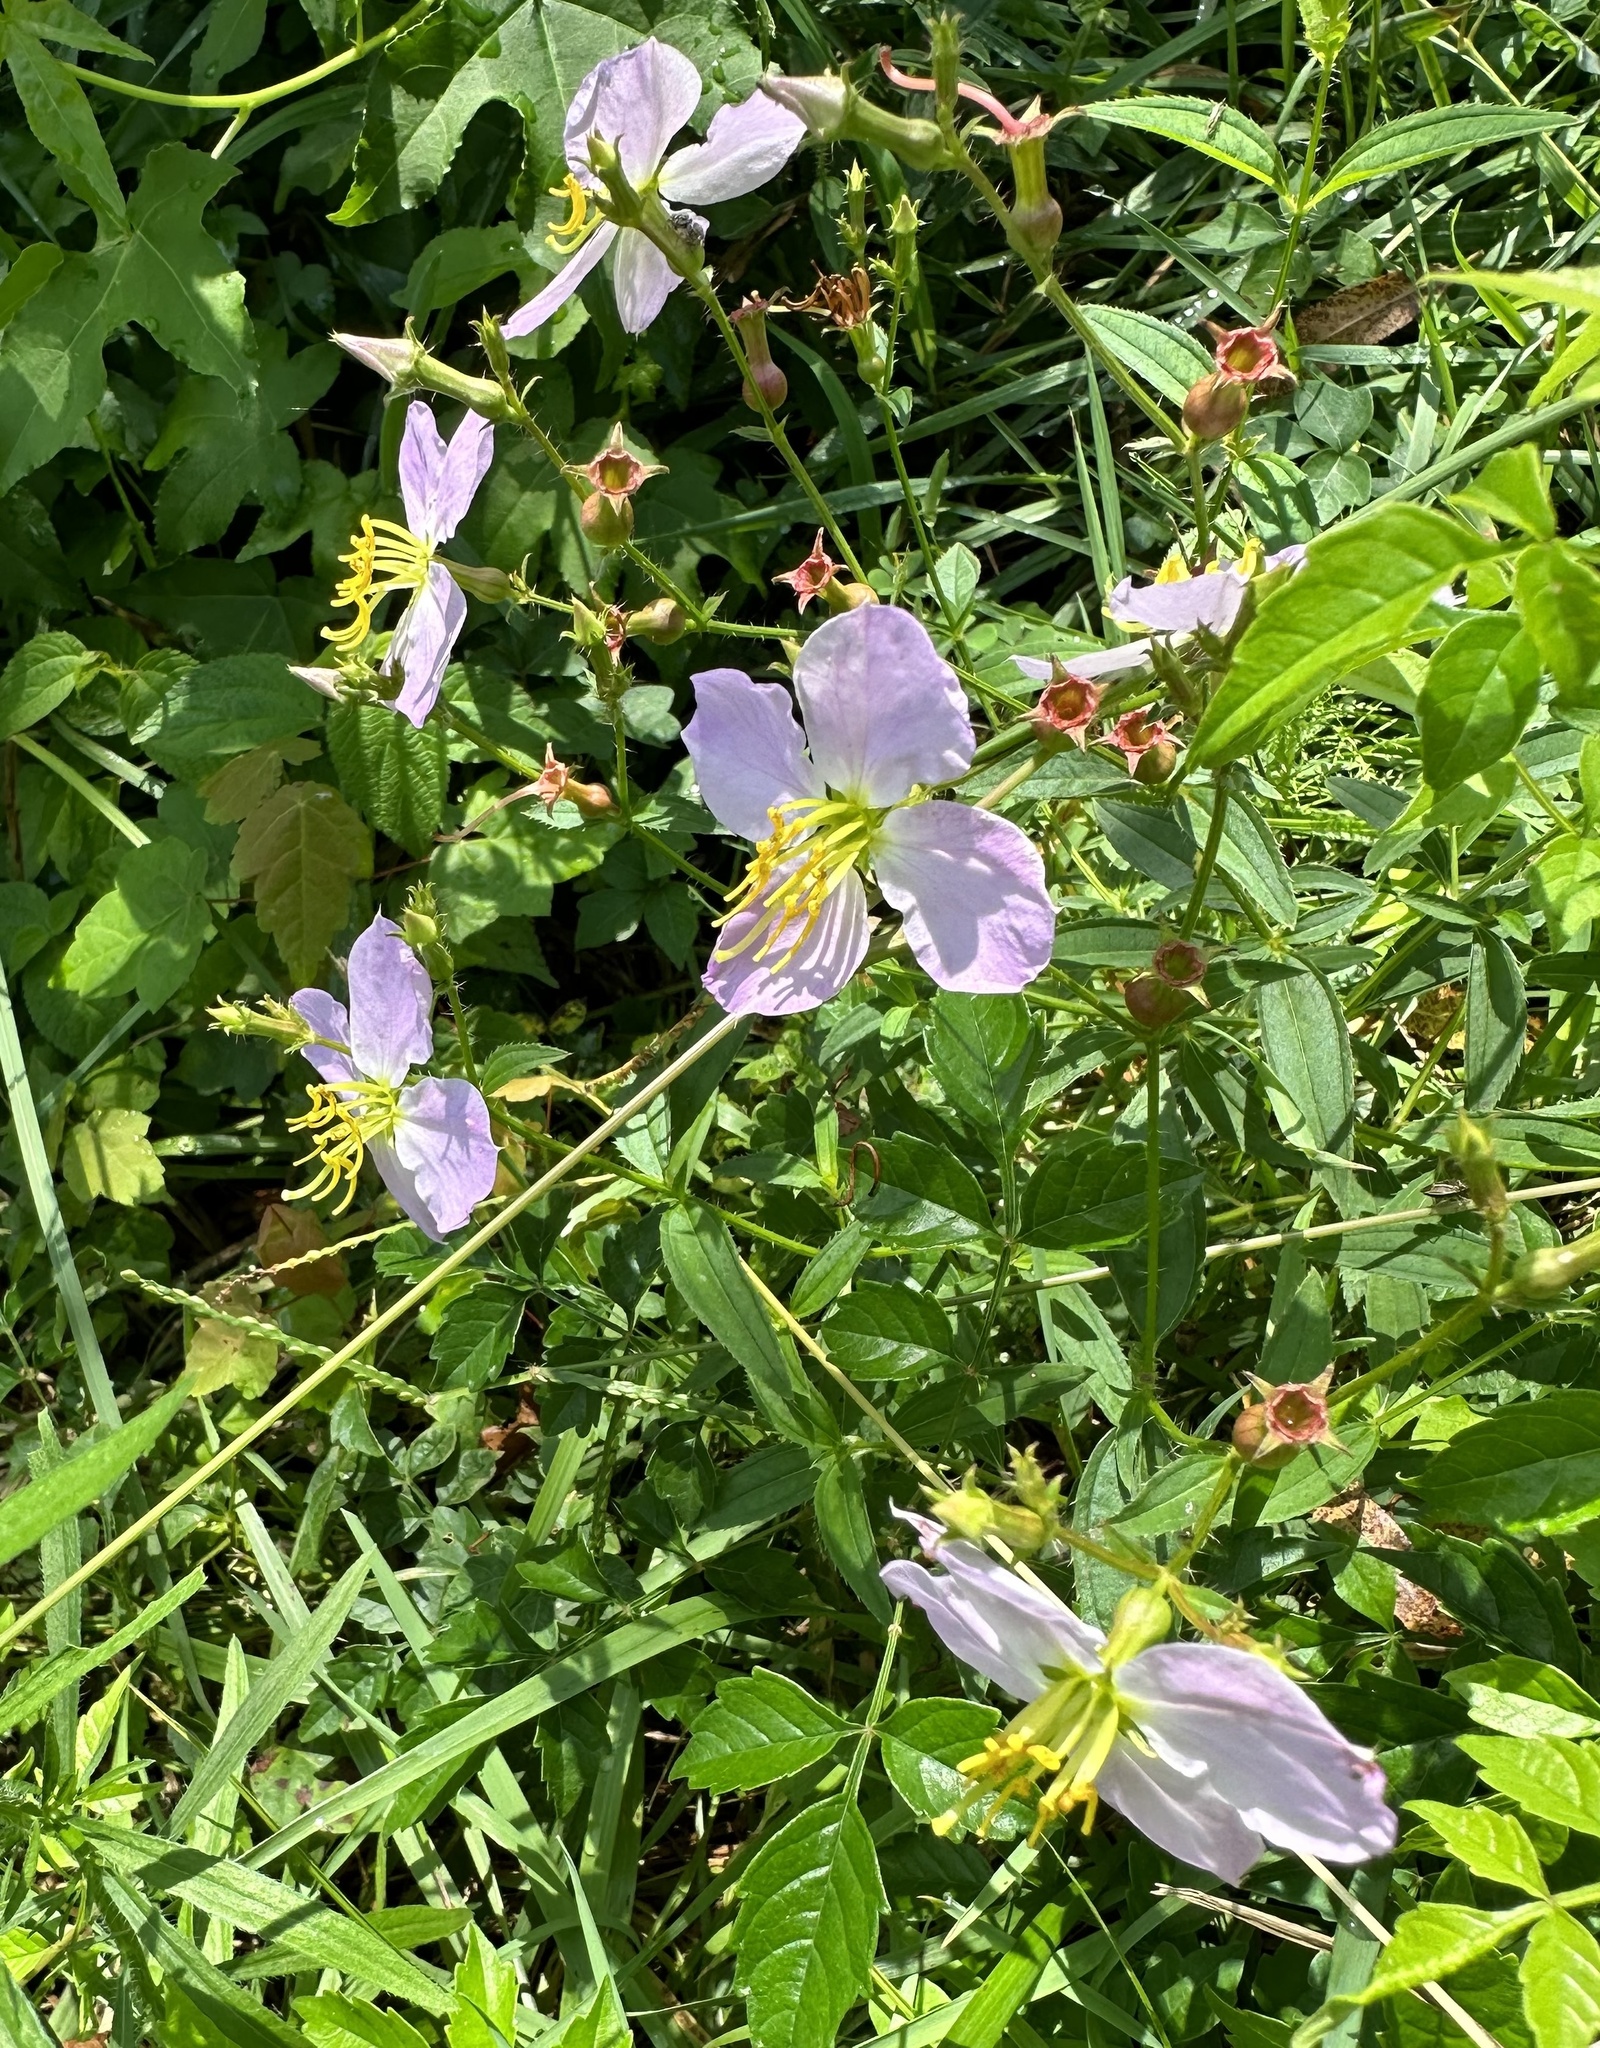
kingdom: Plantae
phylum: Tracheophyta
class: Magnoliopsida
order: Myrtales
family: Melastomataceae
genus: Rhexia
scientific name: Rhexia mariana
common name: Dull meadow-pitcher
